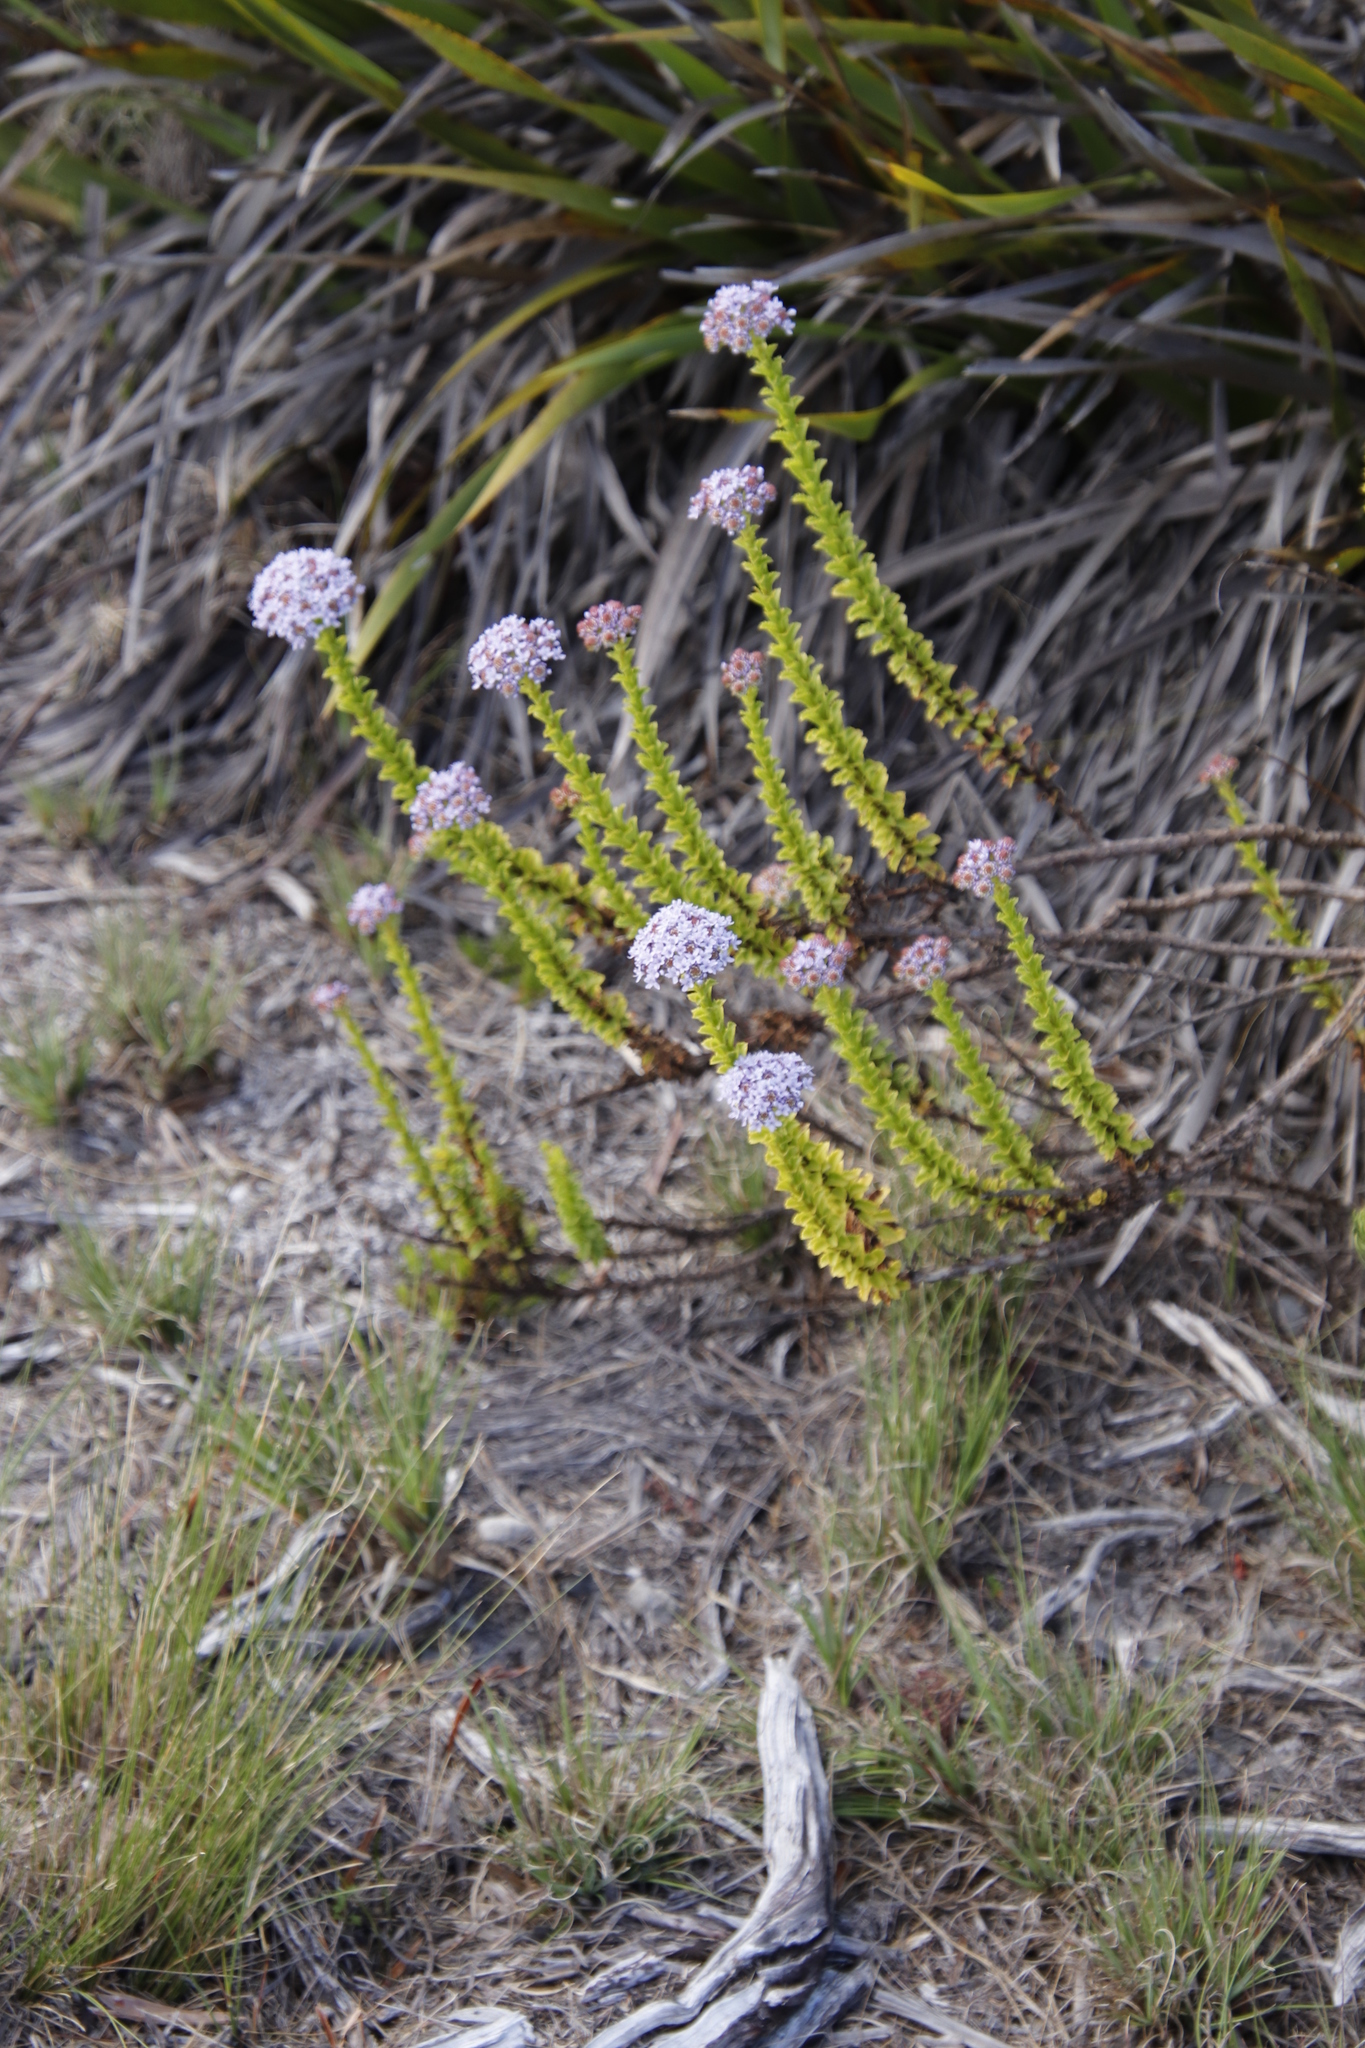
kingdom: Plantae
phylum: Tracheophyta
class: Magnoliopsida
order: Lamiales
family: Scrophulariaceae
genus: Pseudoselago
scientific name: Pseudoselago serrata
